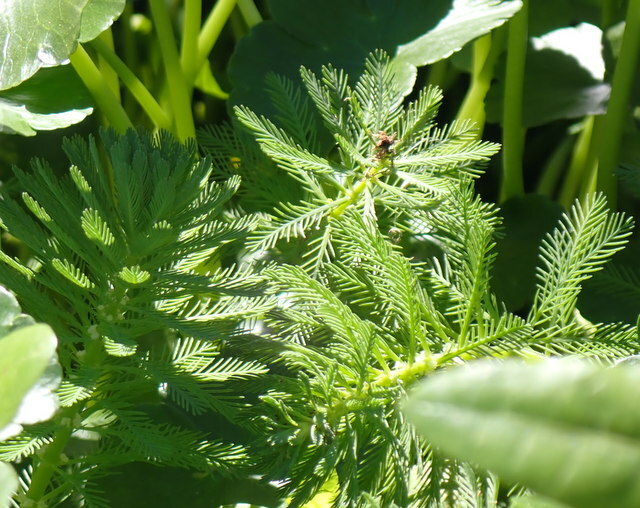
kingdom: Plantae
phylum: Tracheophyta
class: Magnoliopsida
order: Saxifragales
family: Haloragaceae
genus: Myriophyllum
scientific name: Myriophyllum aquaticum
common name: Parrot's feather
